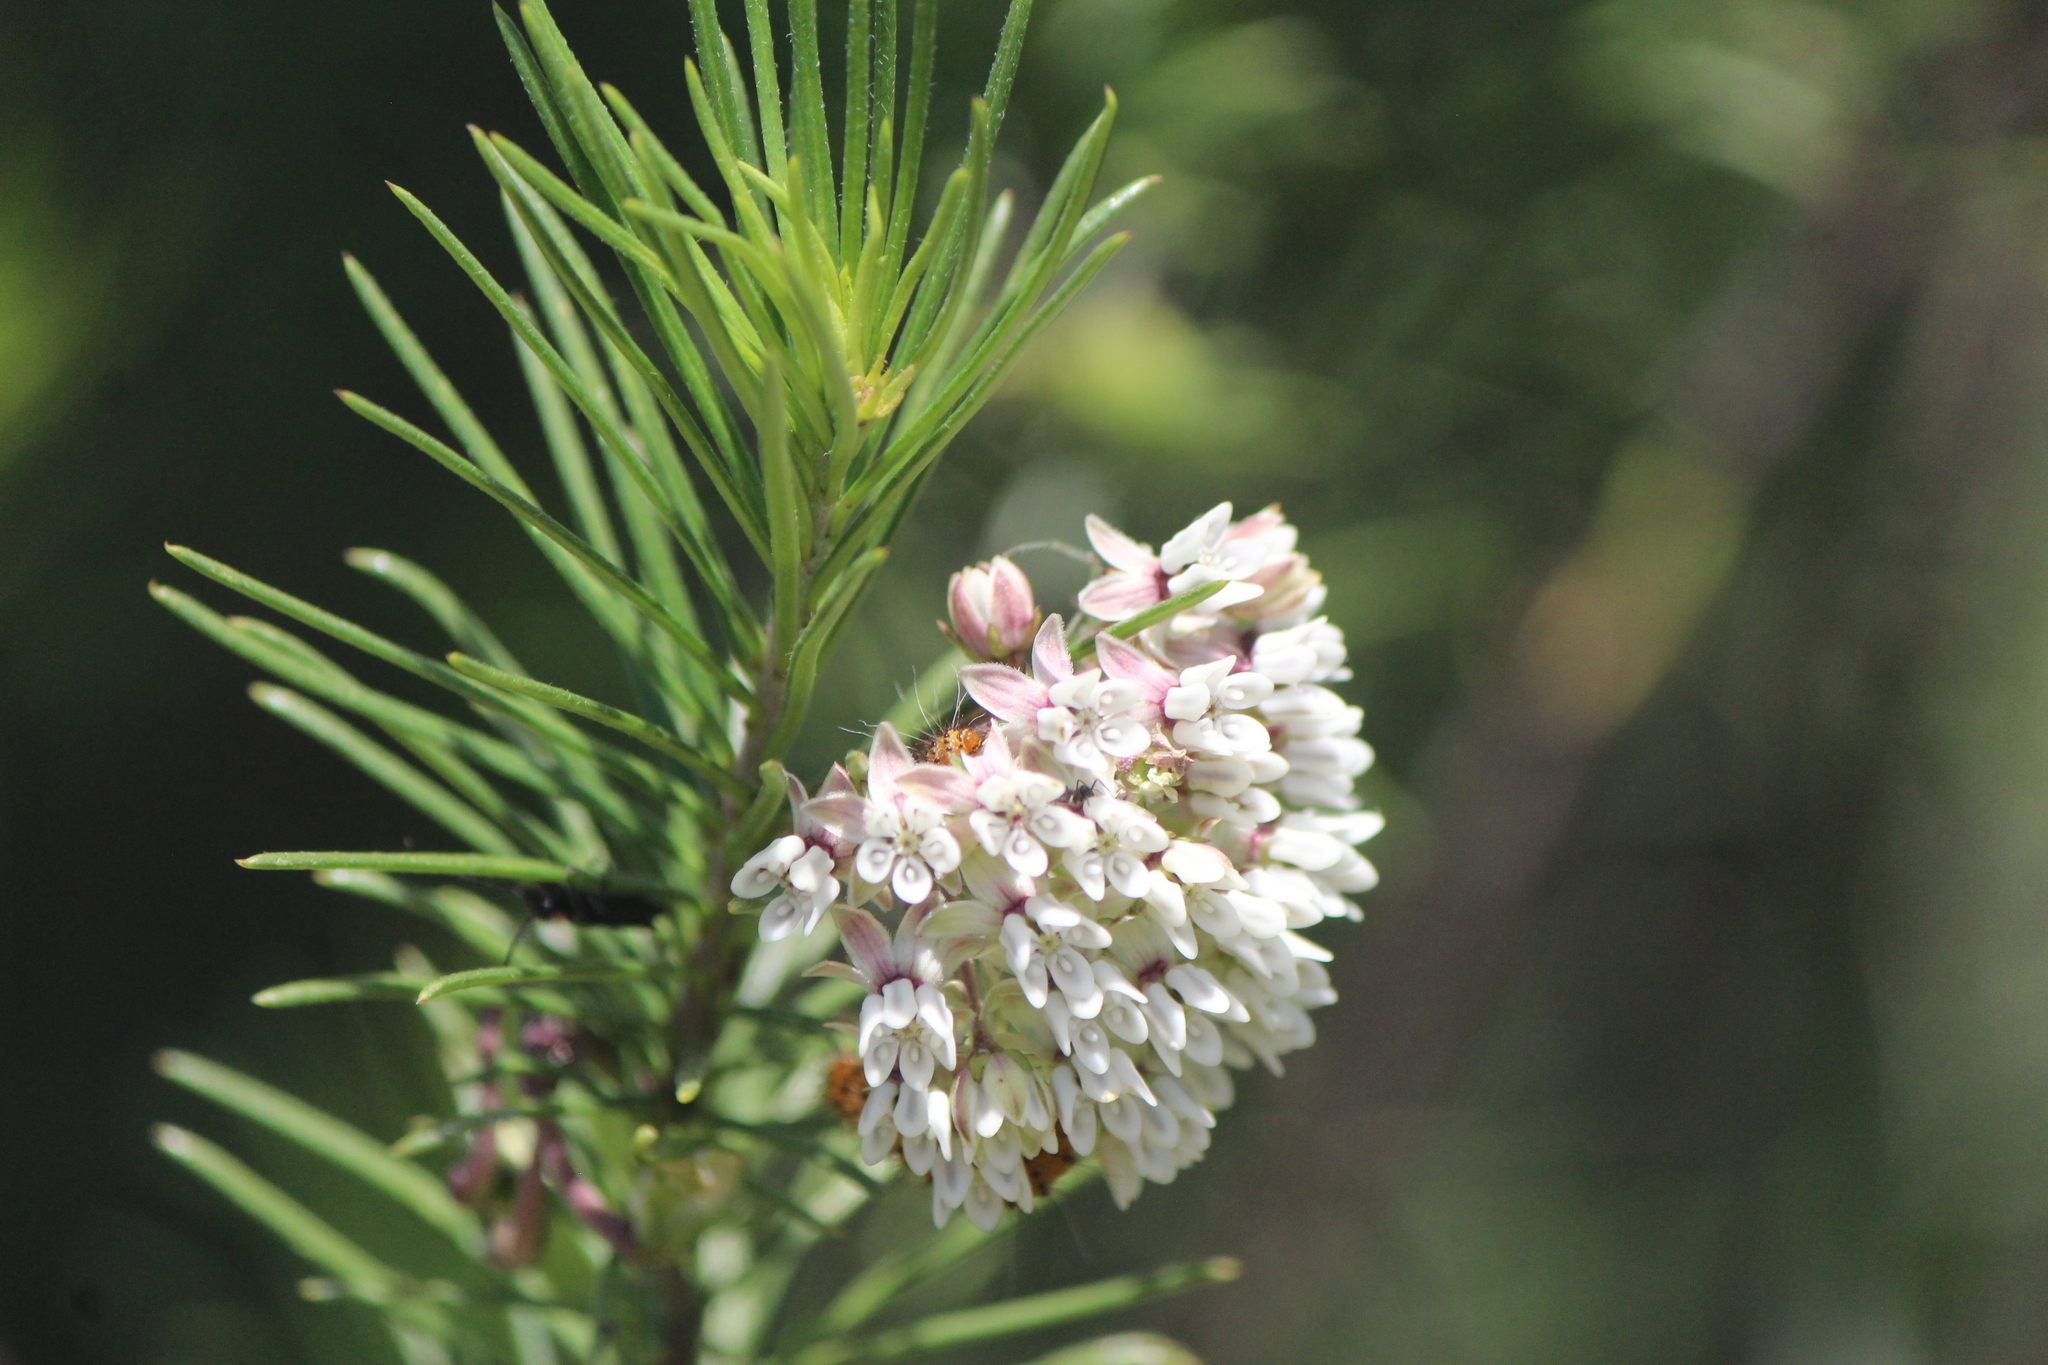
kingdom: Plantae
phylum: Tracheophyta
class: Magnoliopsida
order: Gentianales
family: Apocynaceae
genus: Asclepias
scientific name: Asclepias linaria
